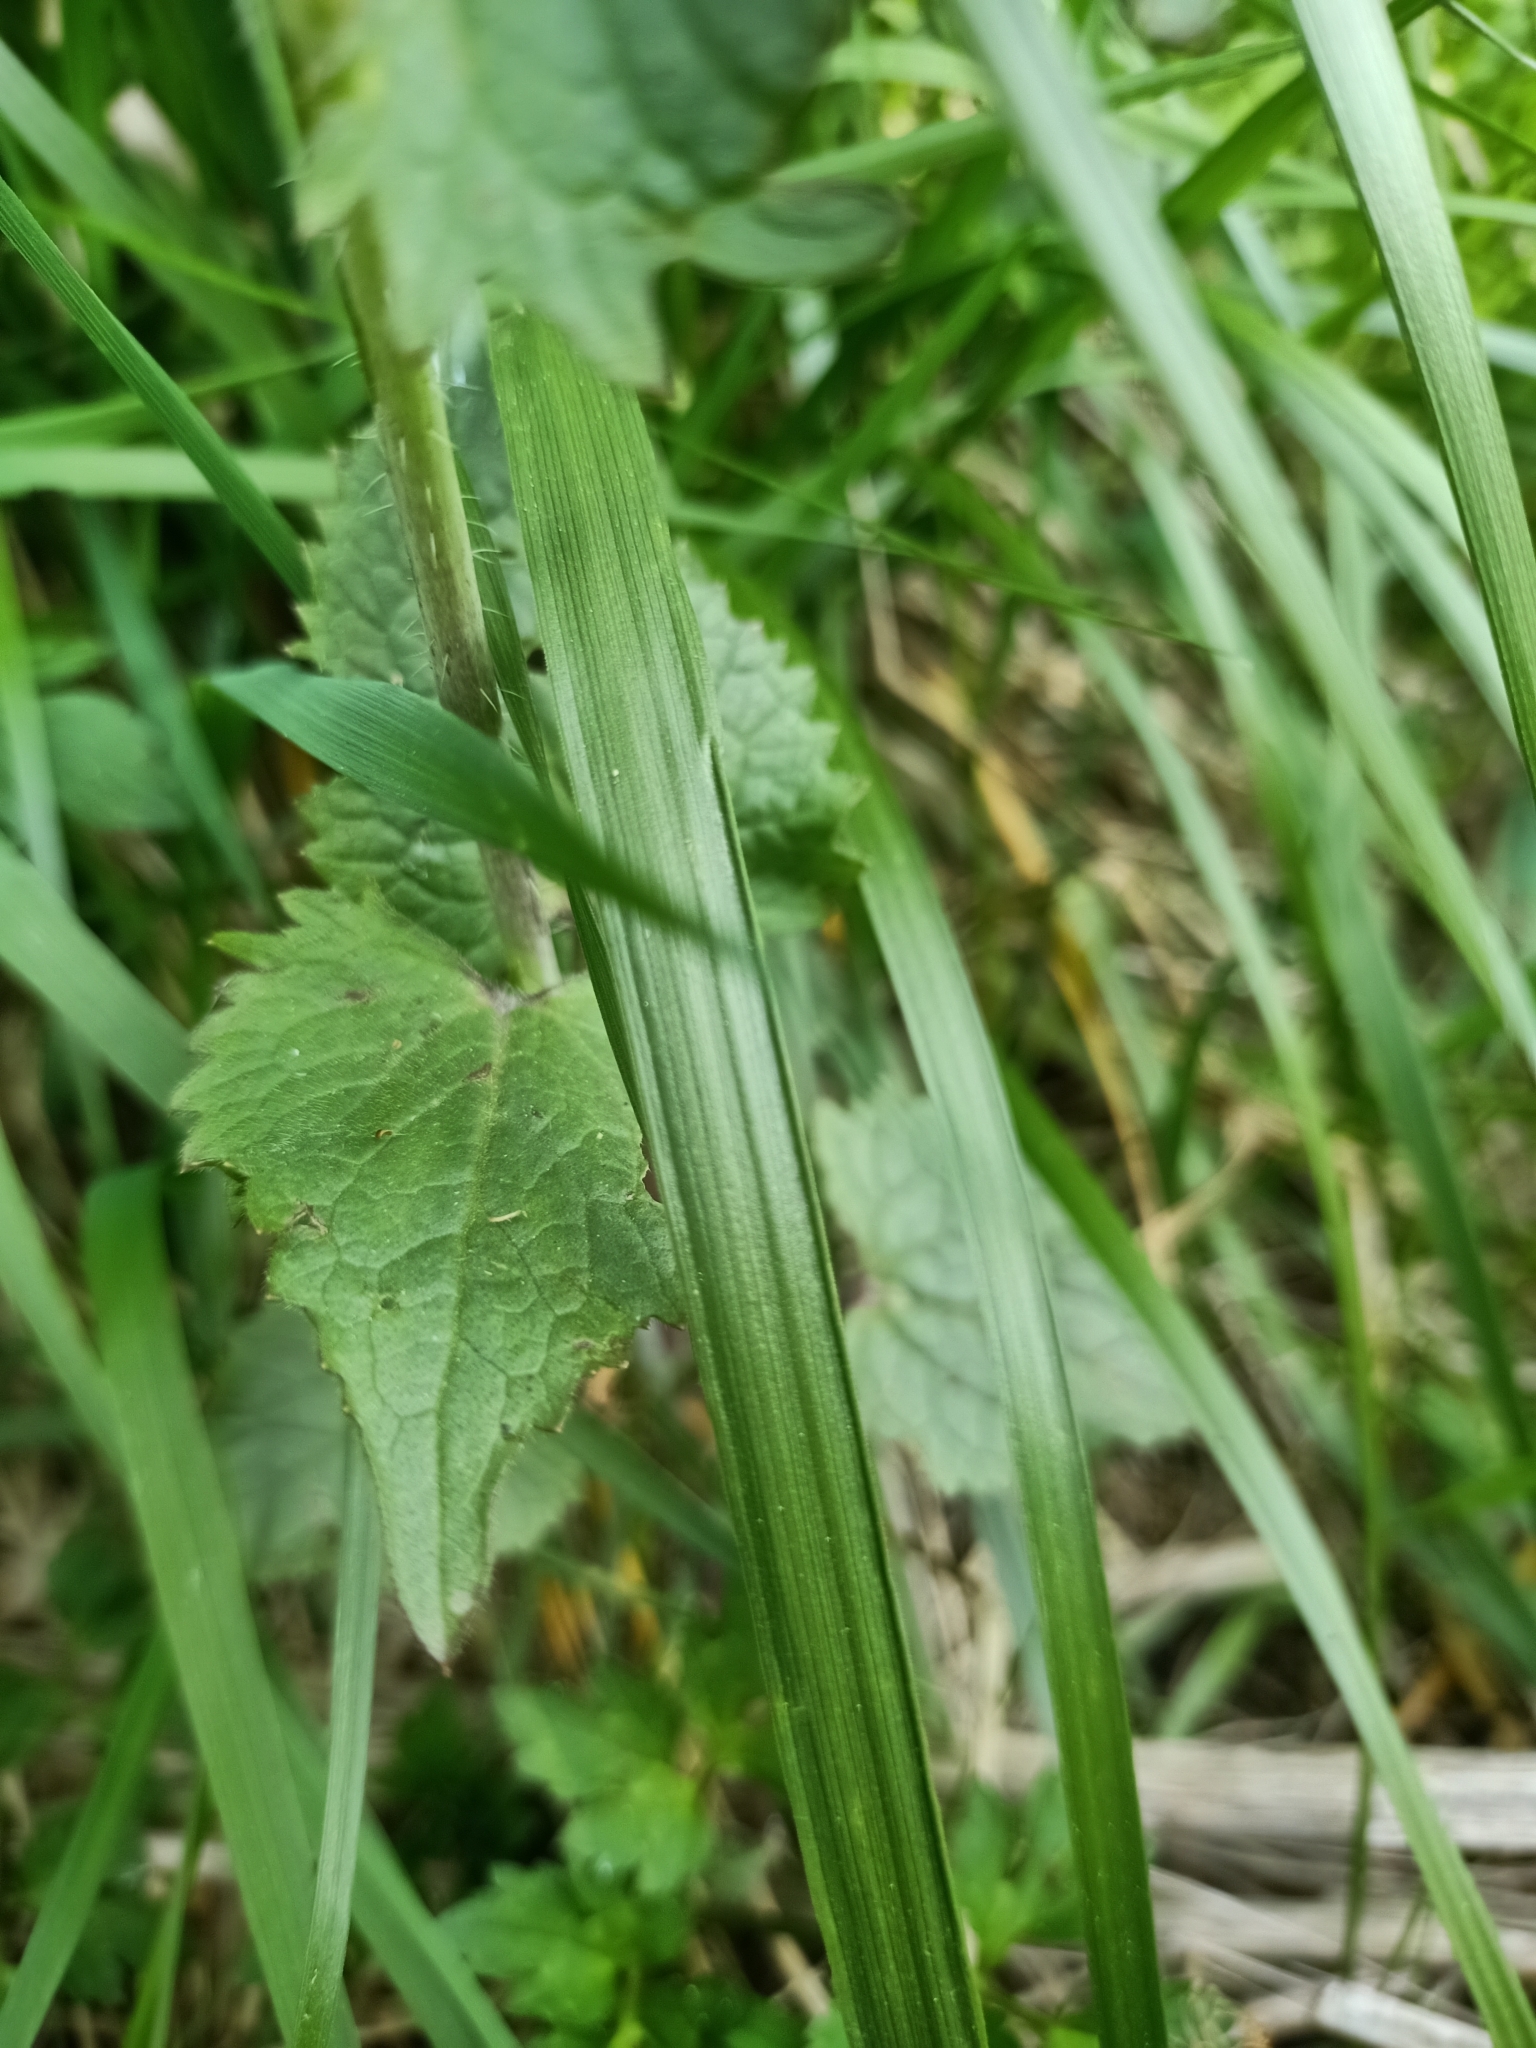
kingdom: Plantae
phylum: Tracheophyta
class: Magnoliopsida
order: Brassicales
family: Brassicaceae
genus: Lunaria
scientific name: Lunaria annua
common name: Honesty
